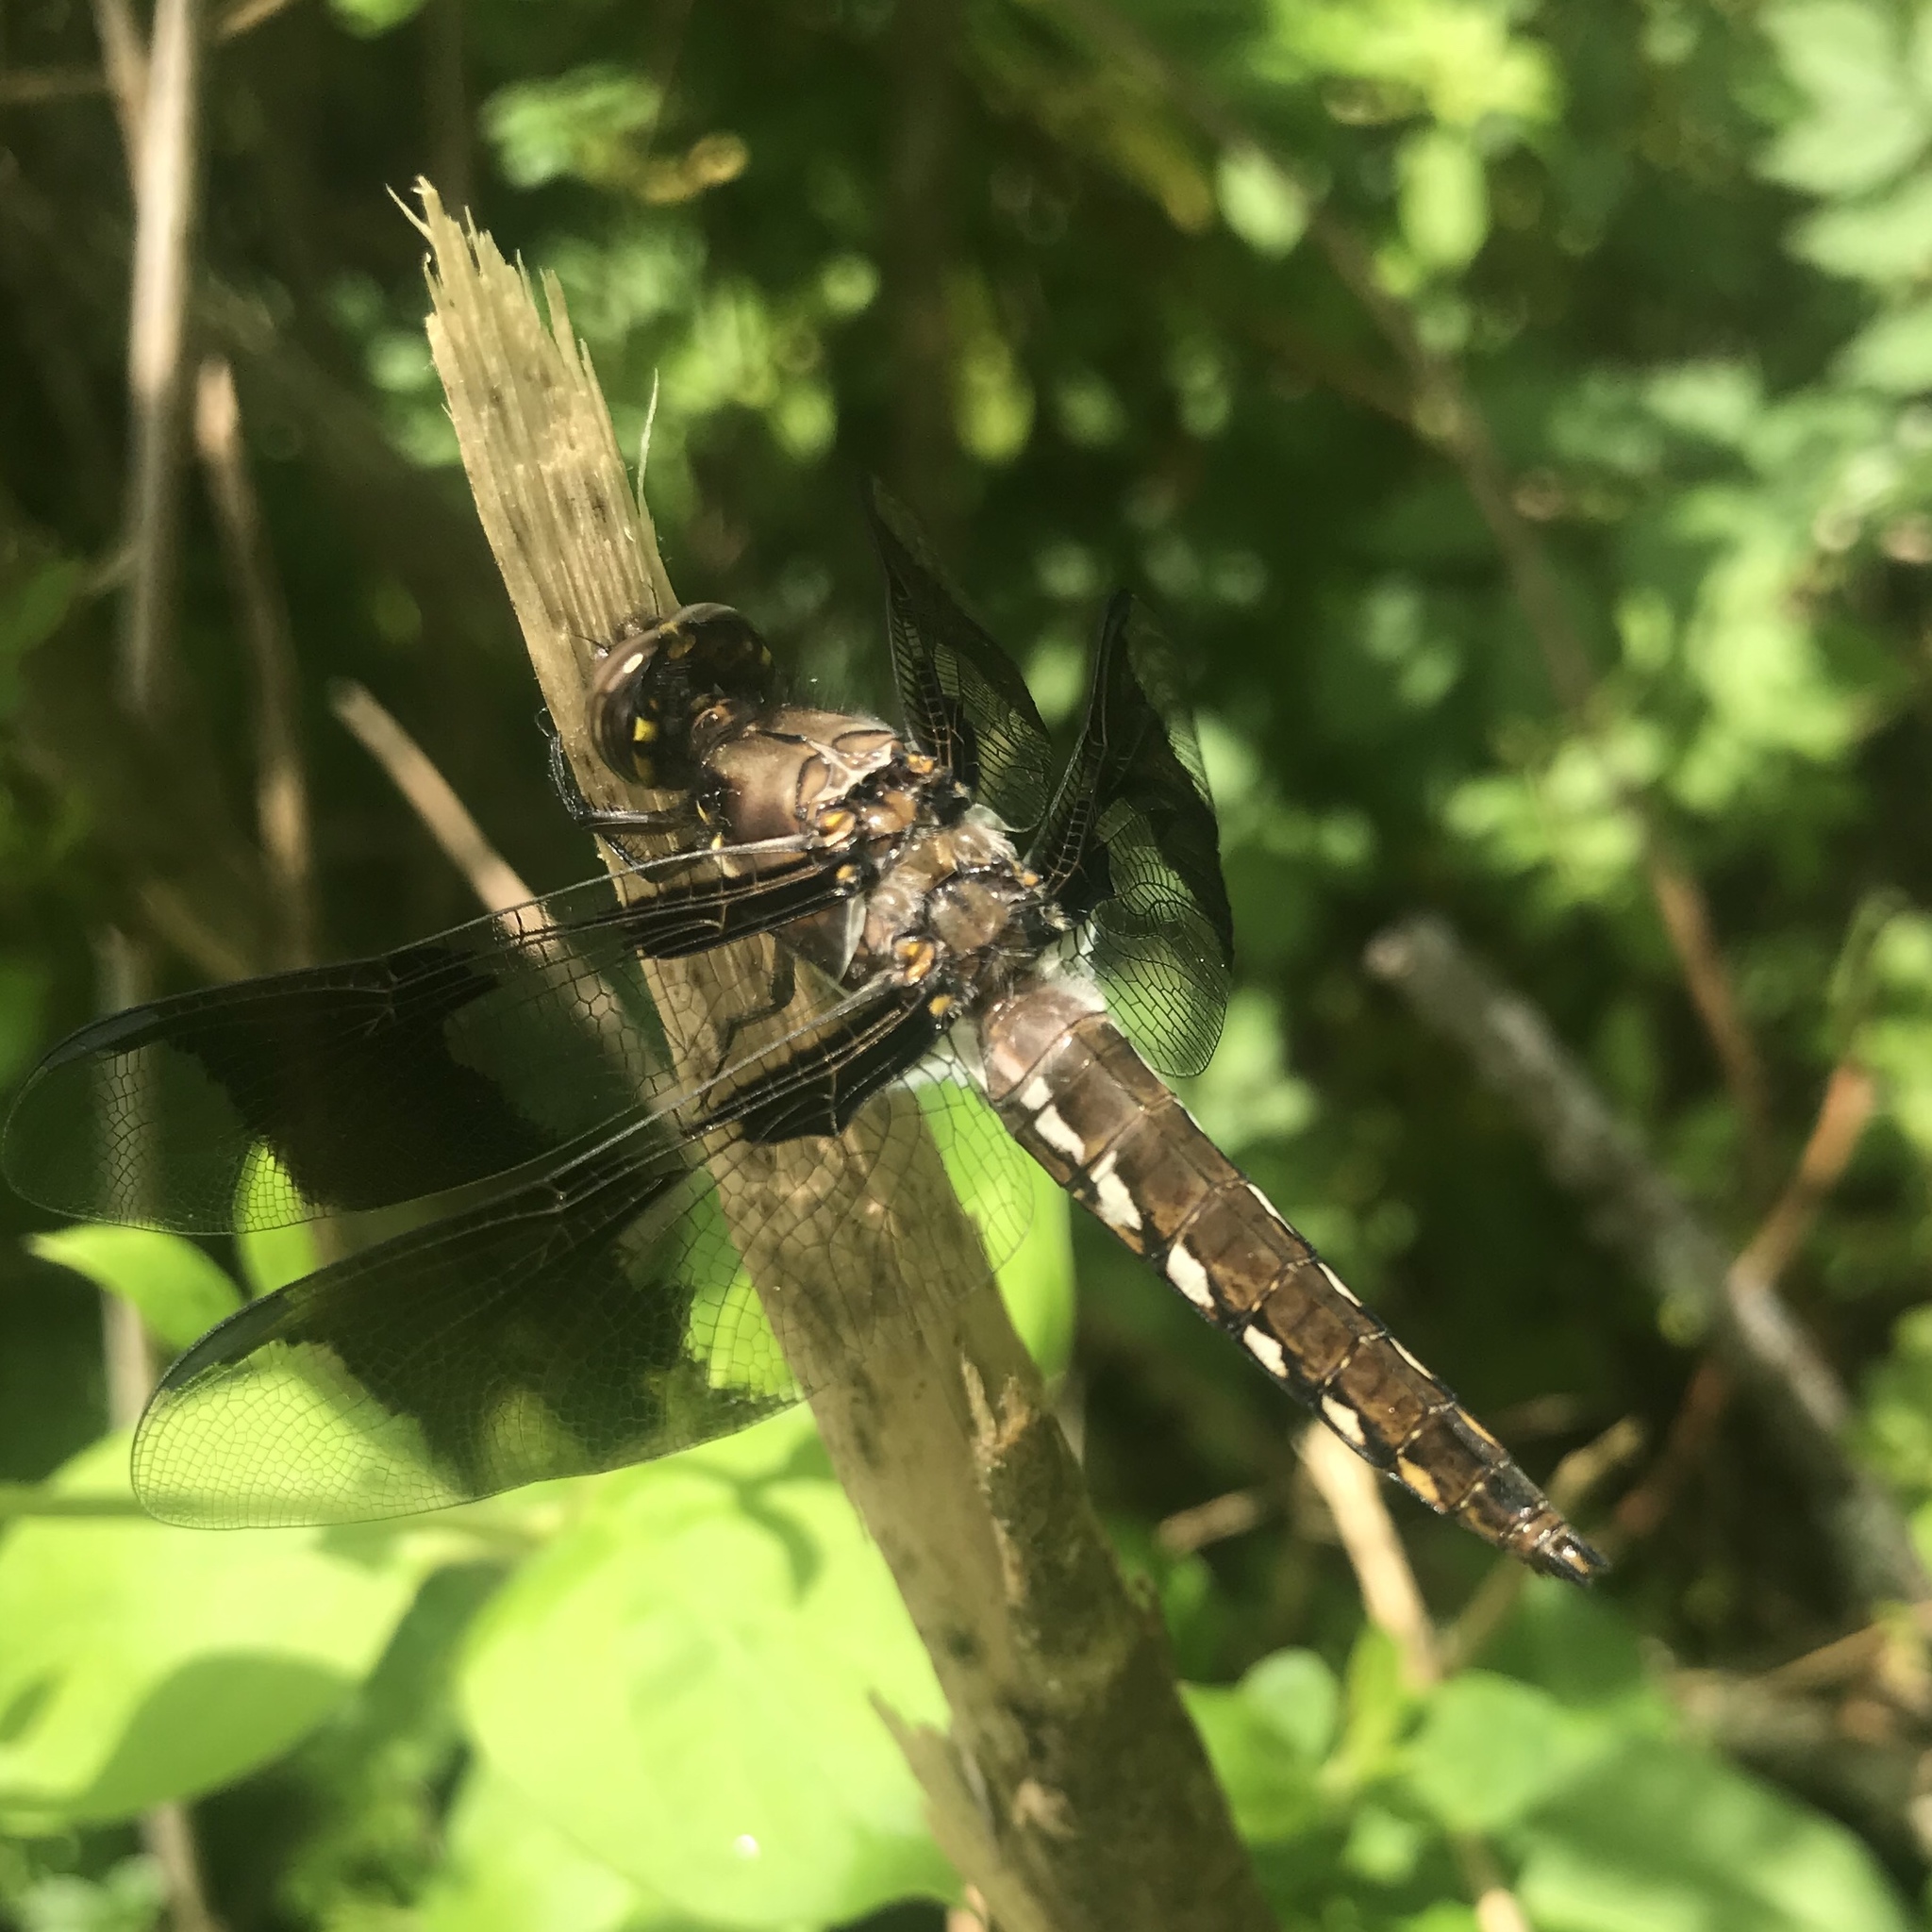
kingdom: Animalia
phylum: Arthropoda
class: Insecta
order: Odonata
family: Libellulidae
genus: Plathemis
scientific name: Plathemis lydia
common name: Common whitetail
